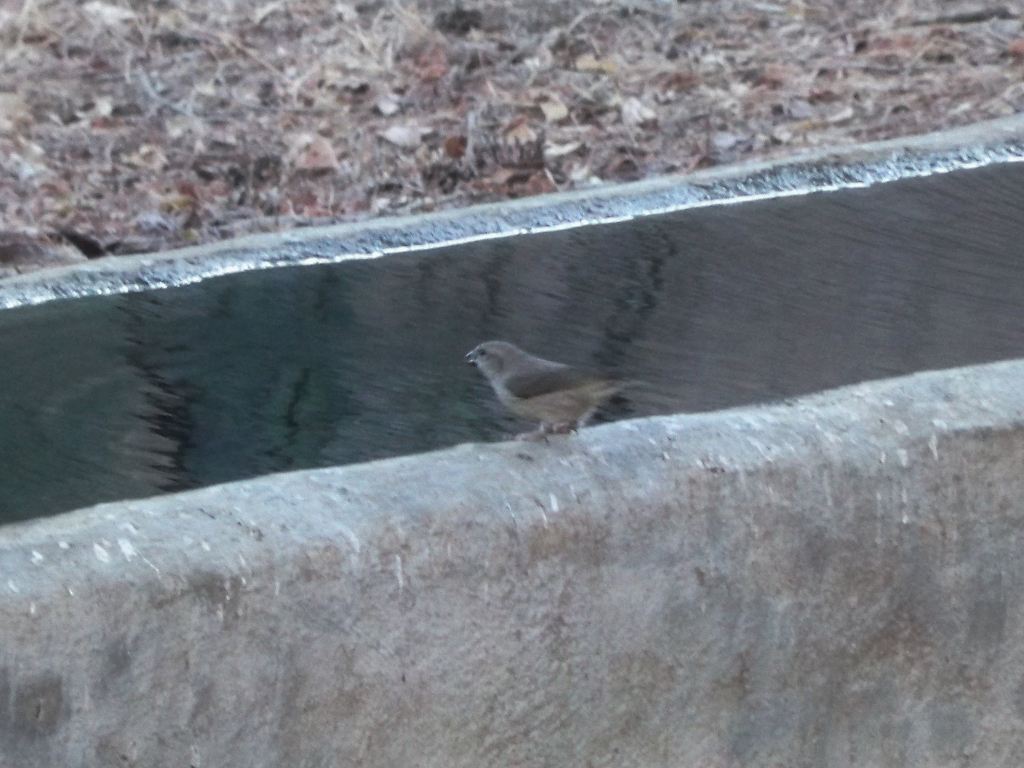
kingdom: Animalia
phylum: Chordata
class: Aves
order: Passeriformes
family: Fringillidae
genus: Loxia
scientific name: Loxia curvirostra
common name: Red crossbill
